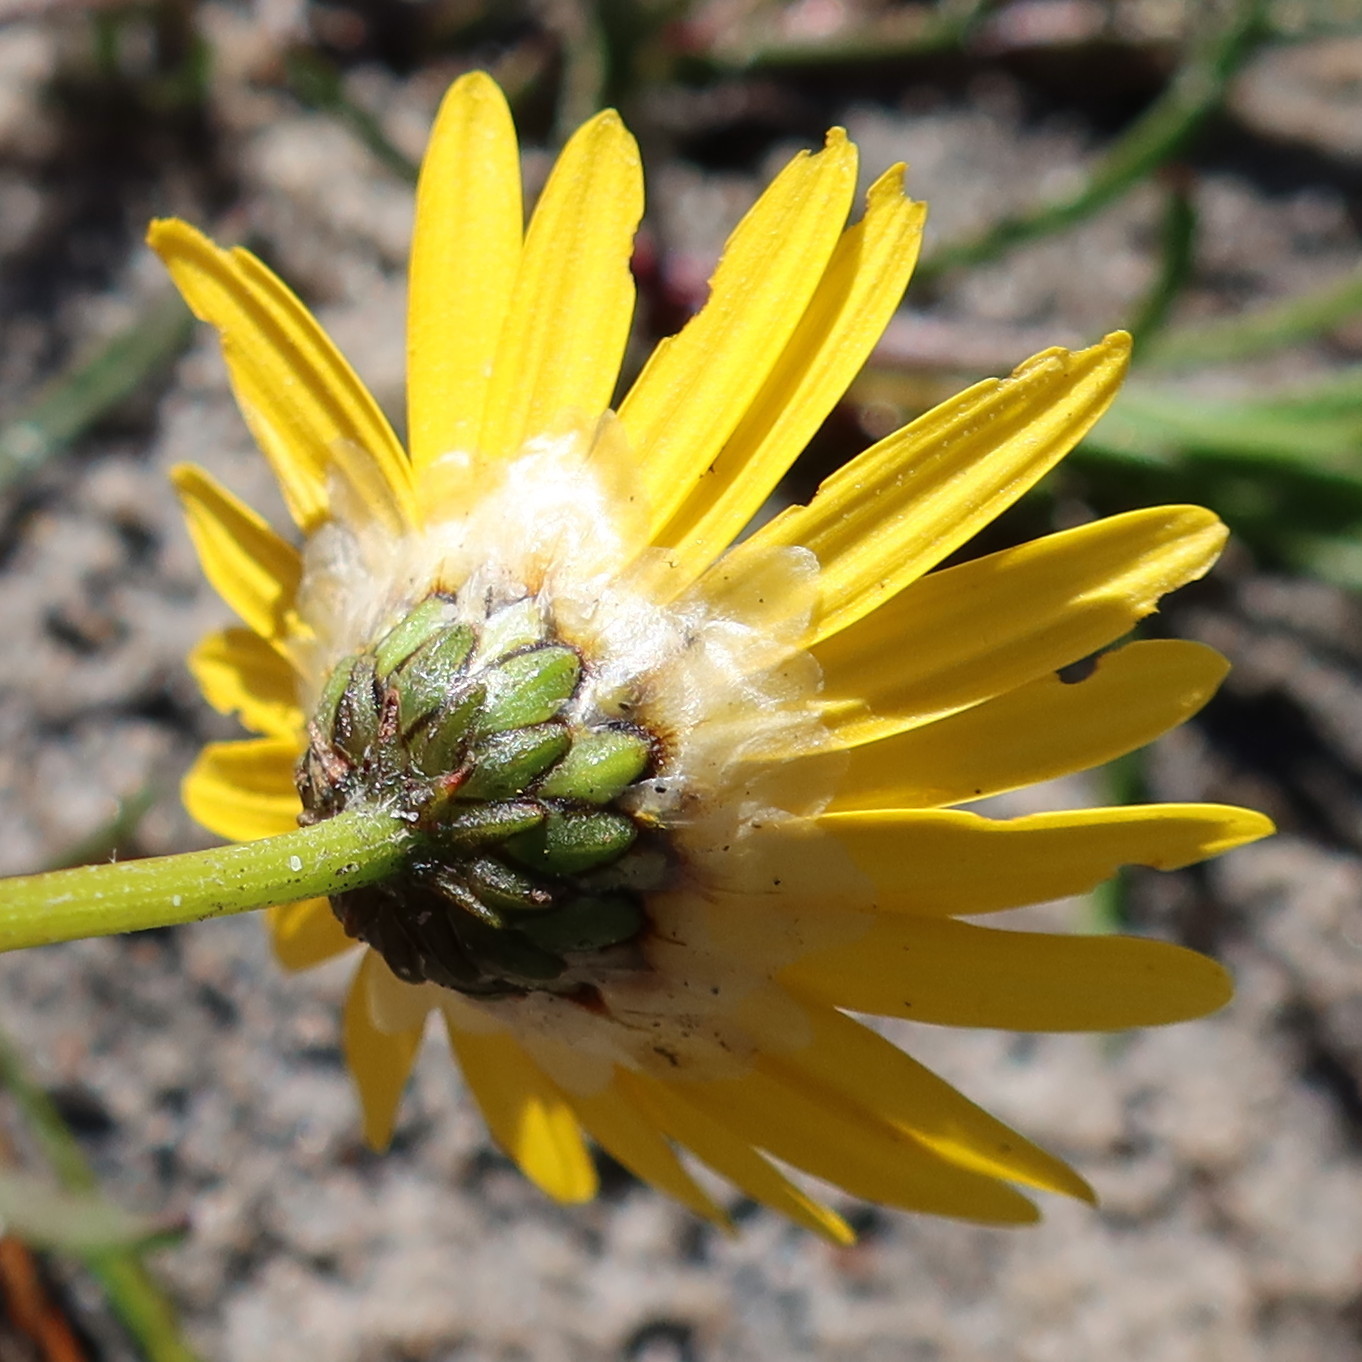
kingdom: Plantae
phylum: Tracheophyta
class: Magnoliopsida
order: Asterales
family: Asteraceae
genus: Ursinia
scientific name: Ursinia tenuifolia
